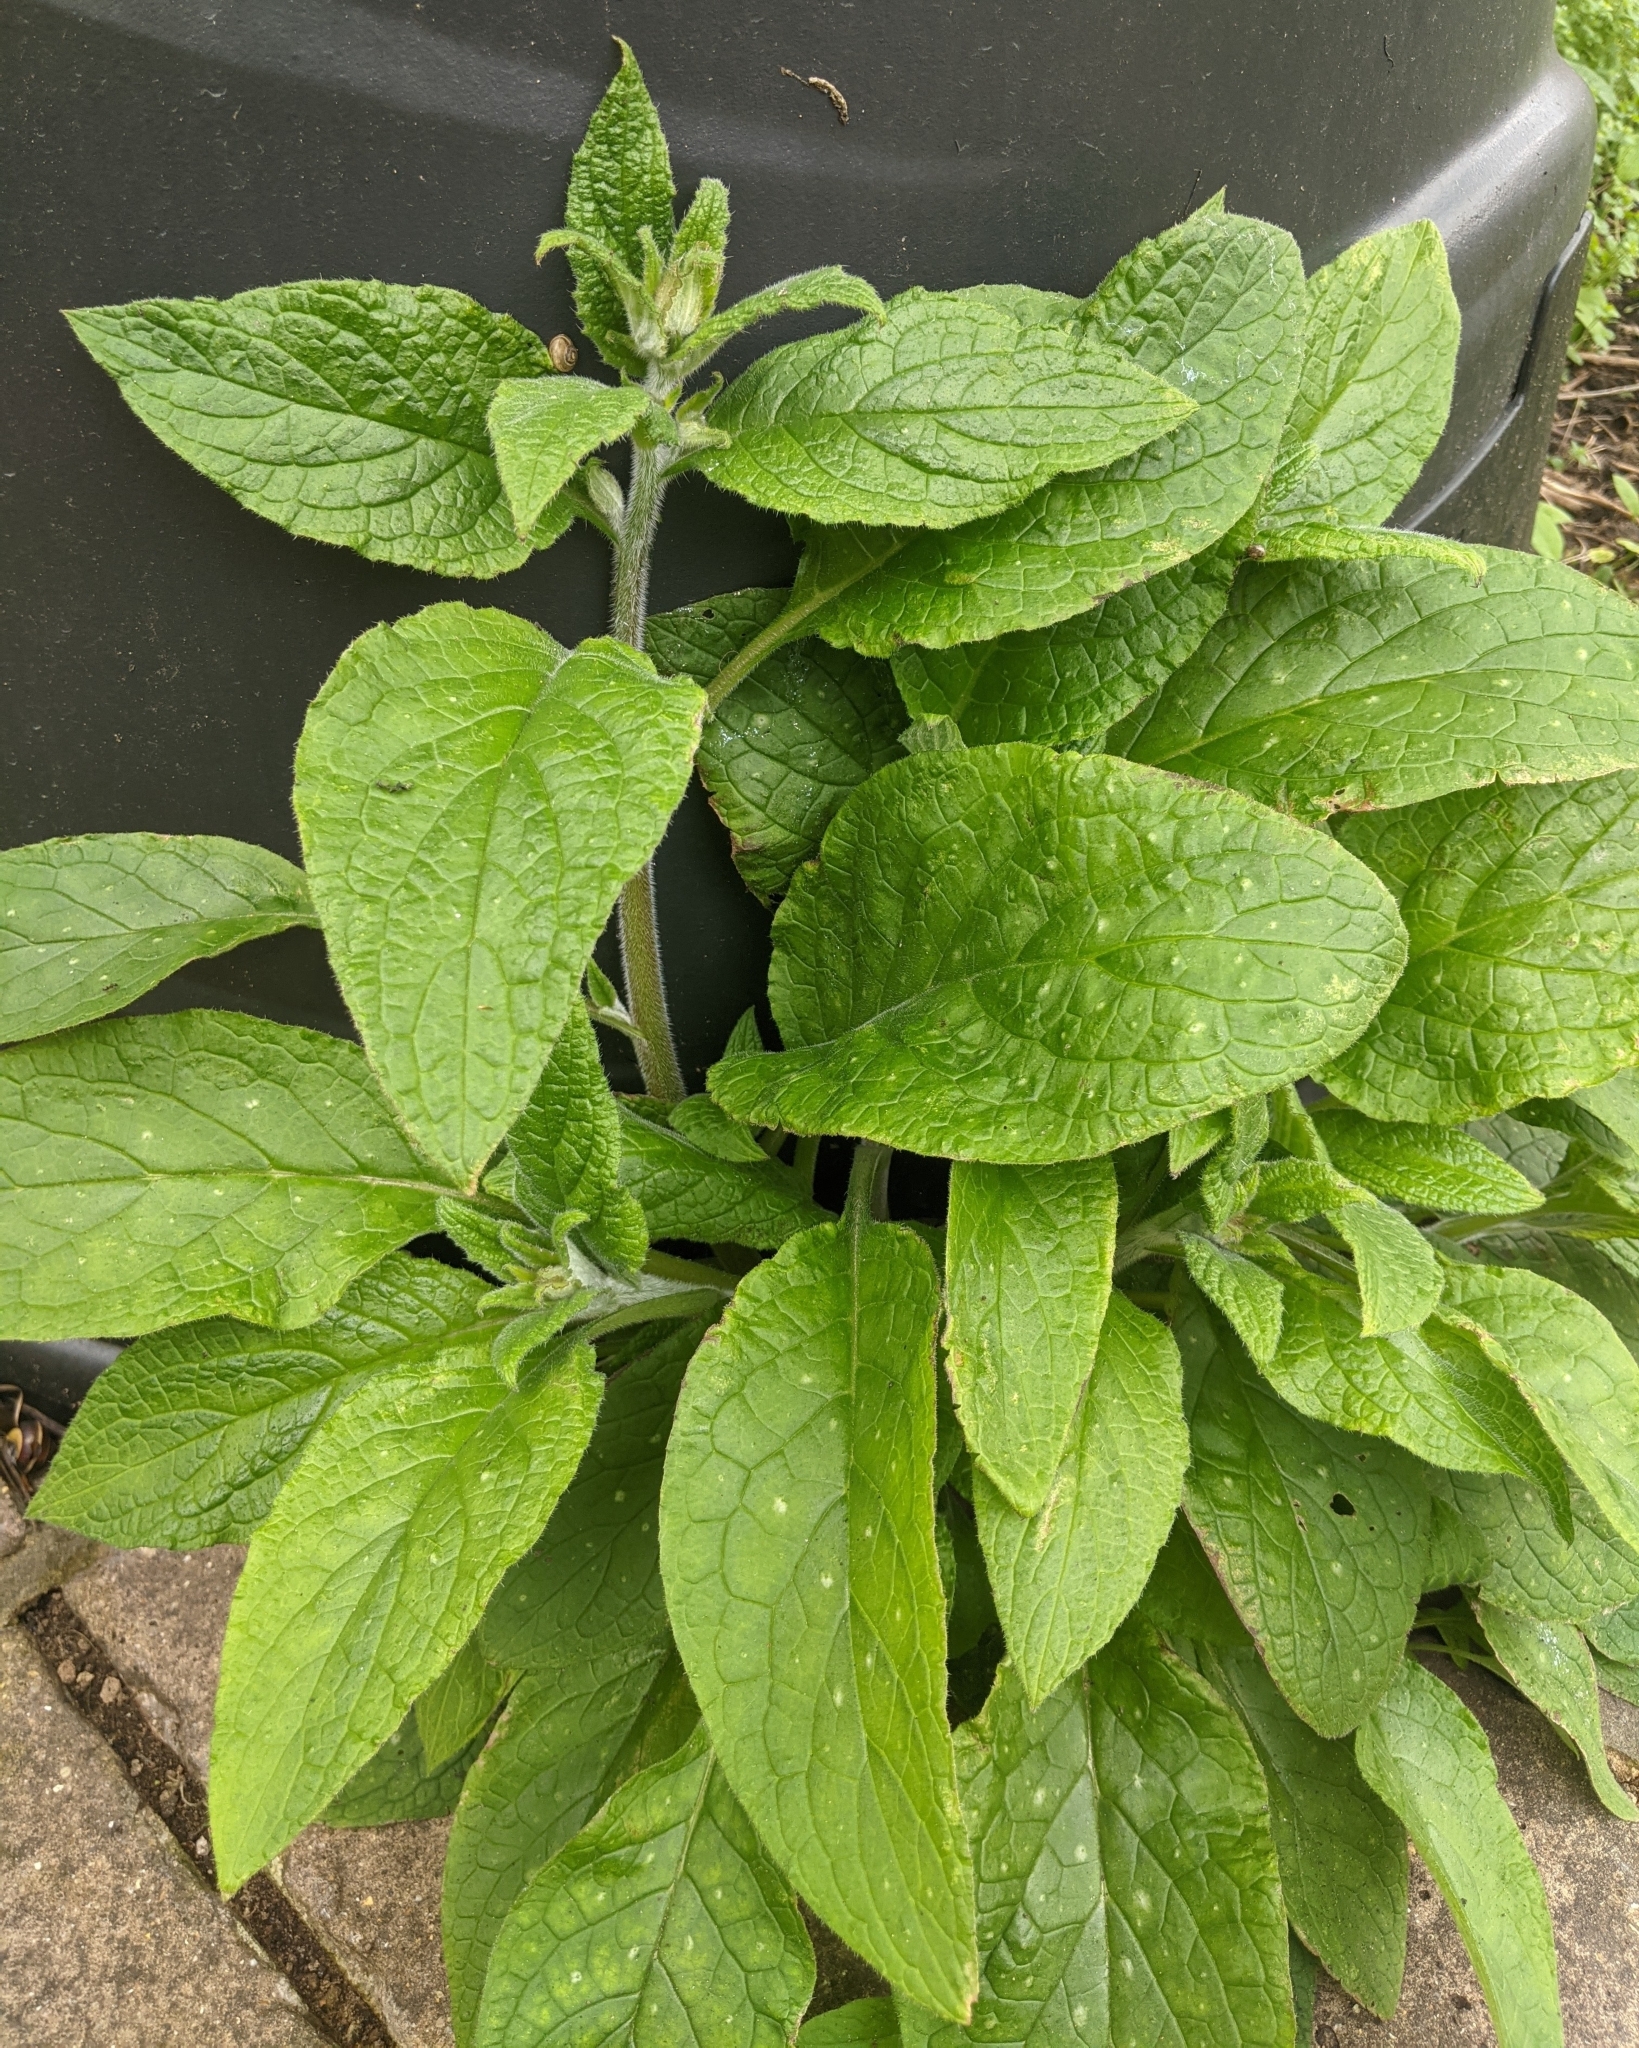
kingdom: Plantae
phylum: Tracheophyta
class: Magnoliopsida
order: Boraginales
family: Boraginaceae
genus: Pentaglottis
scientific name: Pentaglottis sempervirens
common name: Green alkanet
